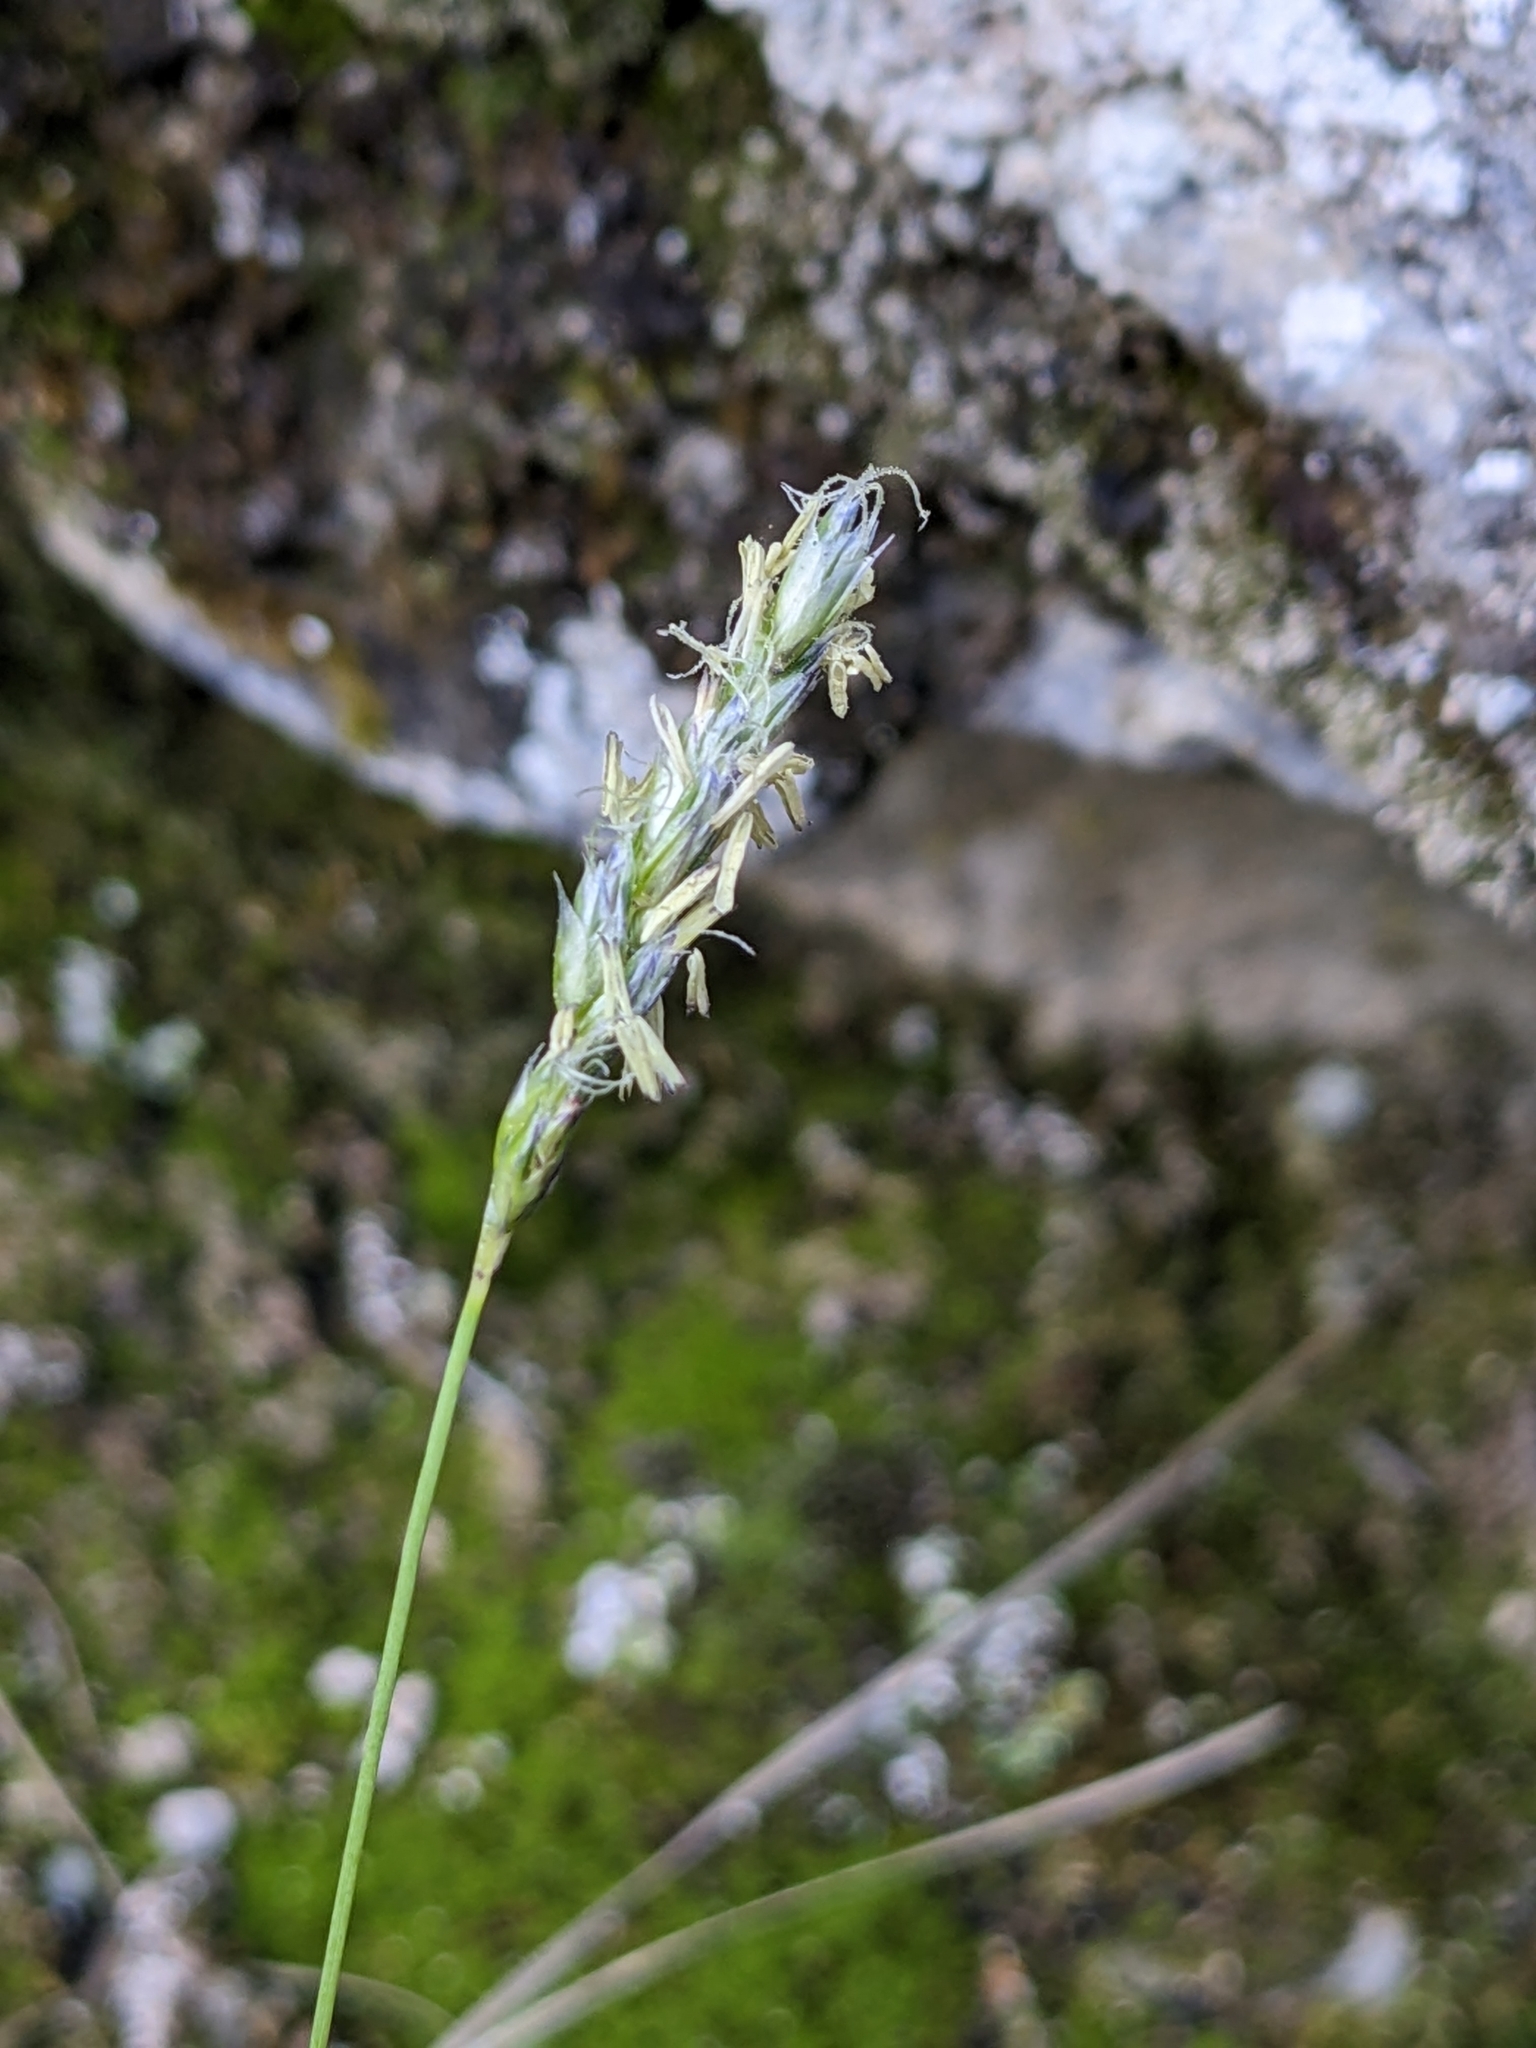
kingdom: Plantae
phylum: Tracheophyta
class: Liliopsida
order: Poales
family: Poaceae
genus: Sesleria
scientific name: Sesleria caerulea
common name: Blue moor-grass
